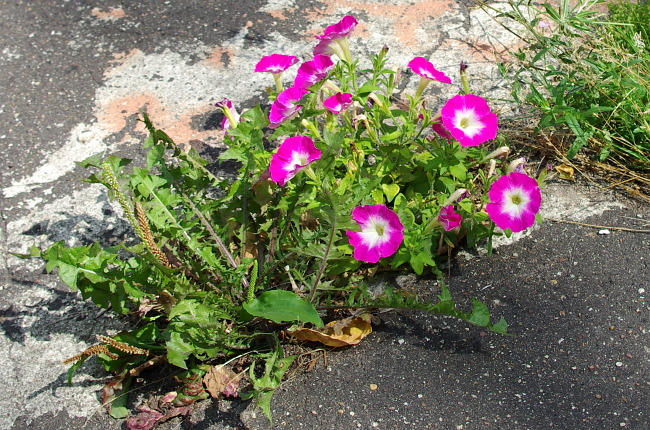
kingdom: Plantae
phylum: Tracheophyta
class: Magnoliopsida
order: Solanales
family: Solanaceae
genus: Petunia
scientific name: Petunia atkinsiana
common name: Petunia
